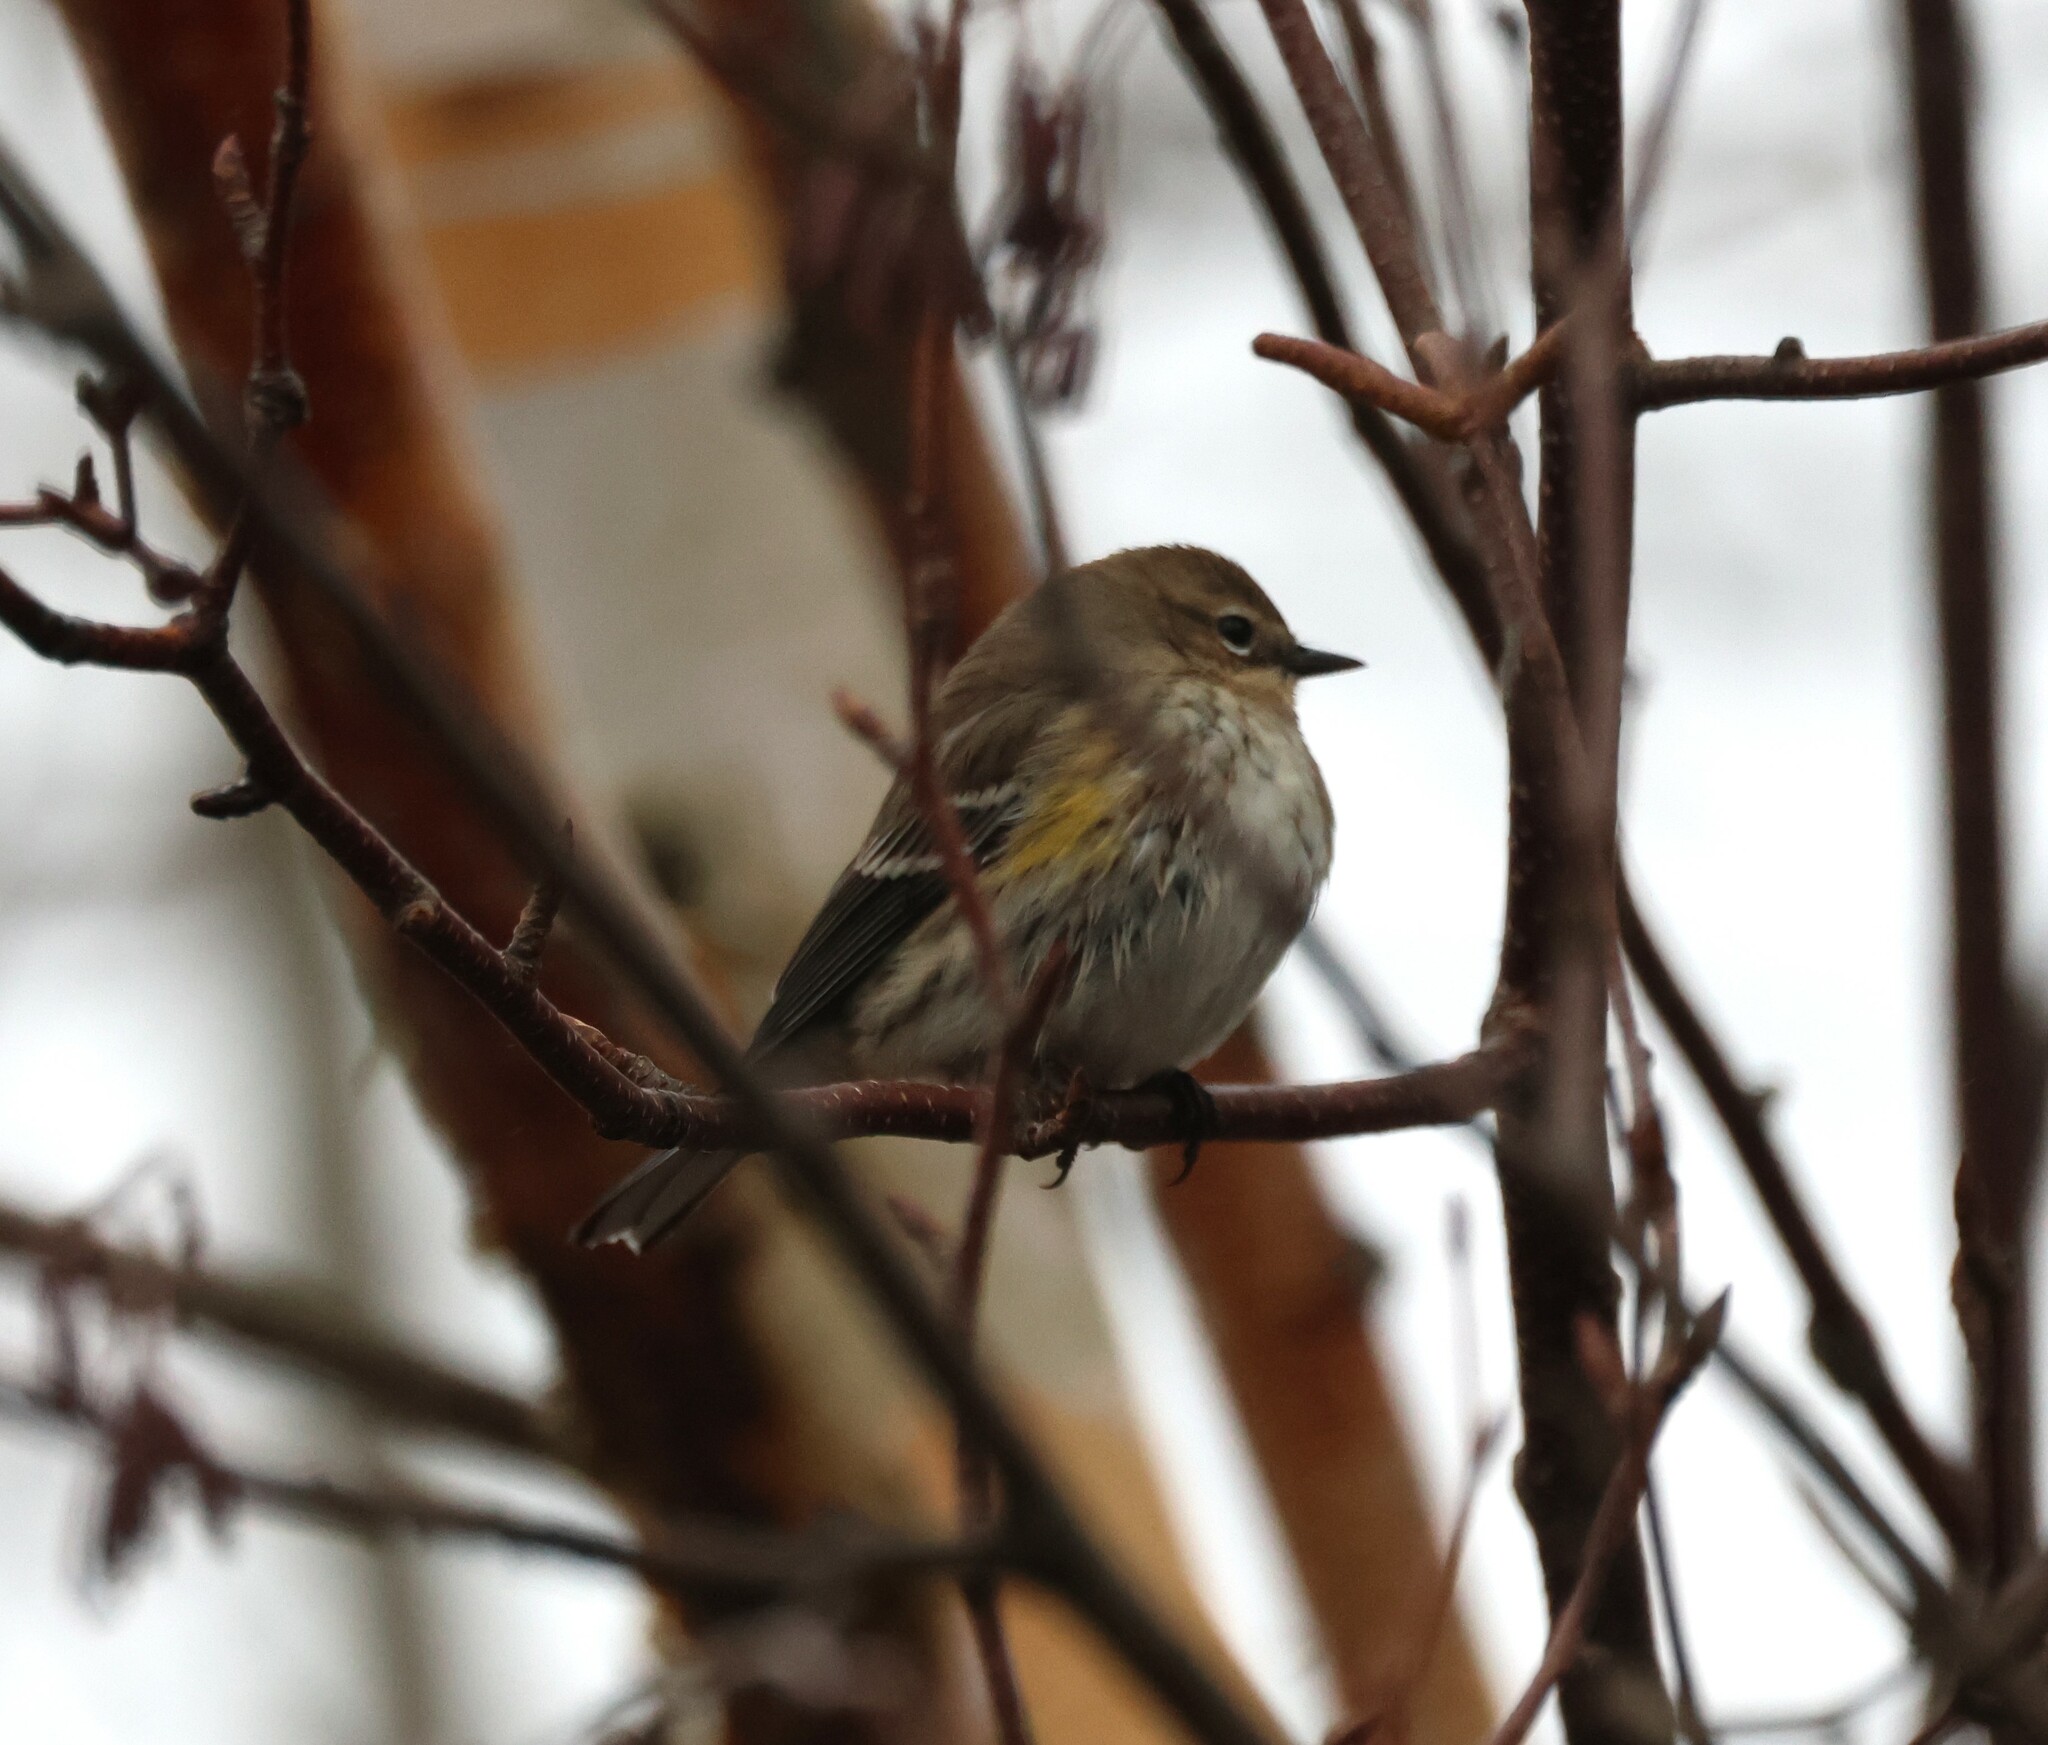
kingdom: Animalia
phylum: Chordata
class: Aves
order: Passeriformes
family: Parulidae
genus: Setophaga
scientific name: Setophaga coronata
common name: Myrtle warbler
